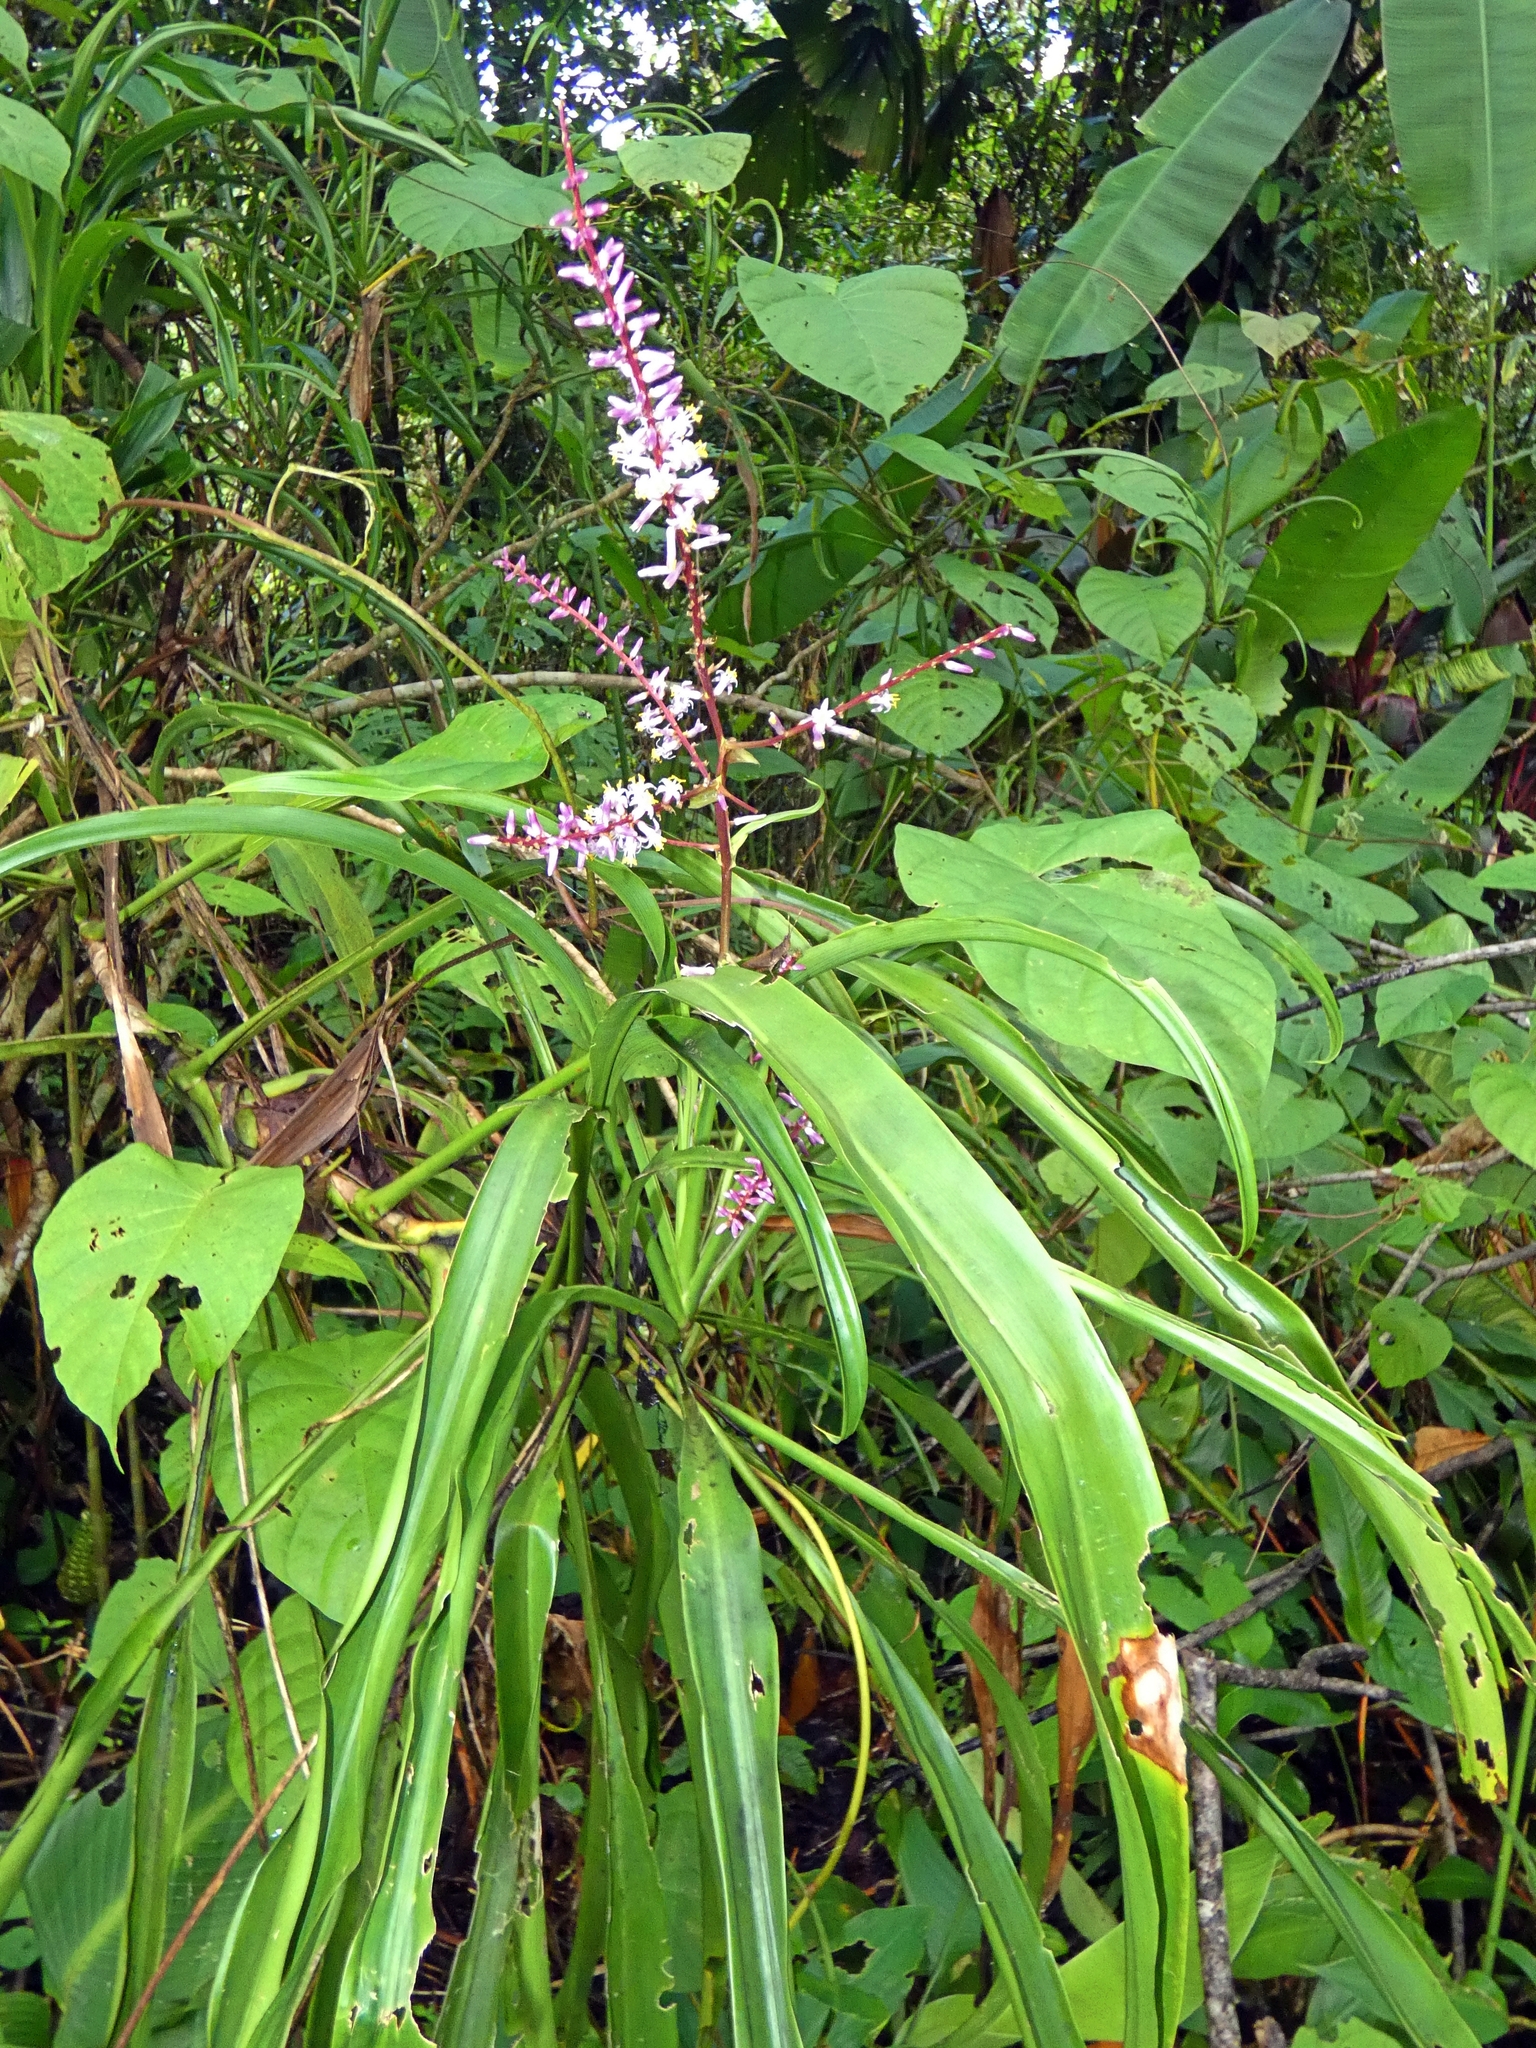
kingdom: Plantae
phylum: Tracheophyta
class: Liliopsida
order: Asparagales
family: Asparagaceae
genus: Cordyline
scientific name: Cordyline cannifolia
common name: Palm-lily
